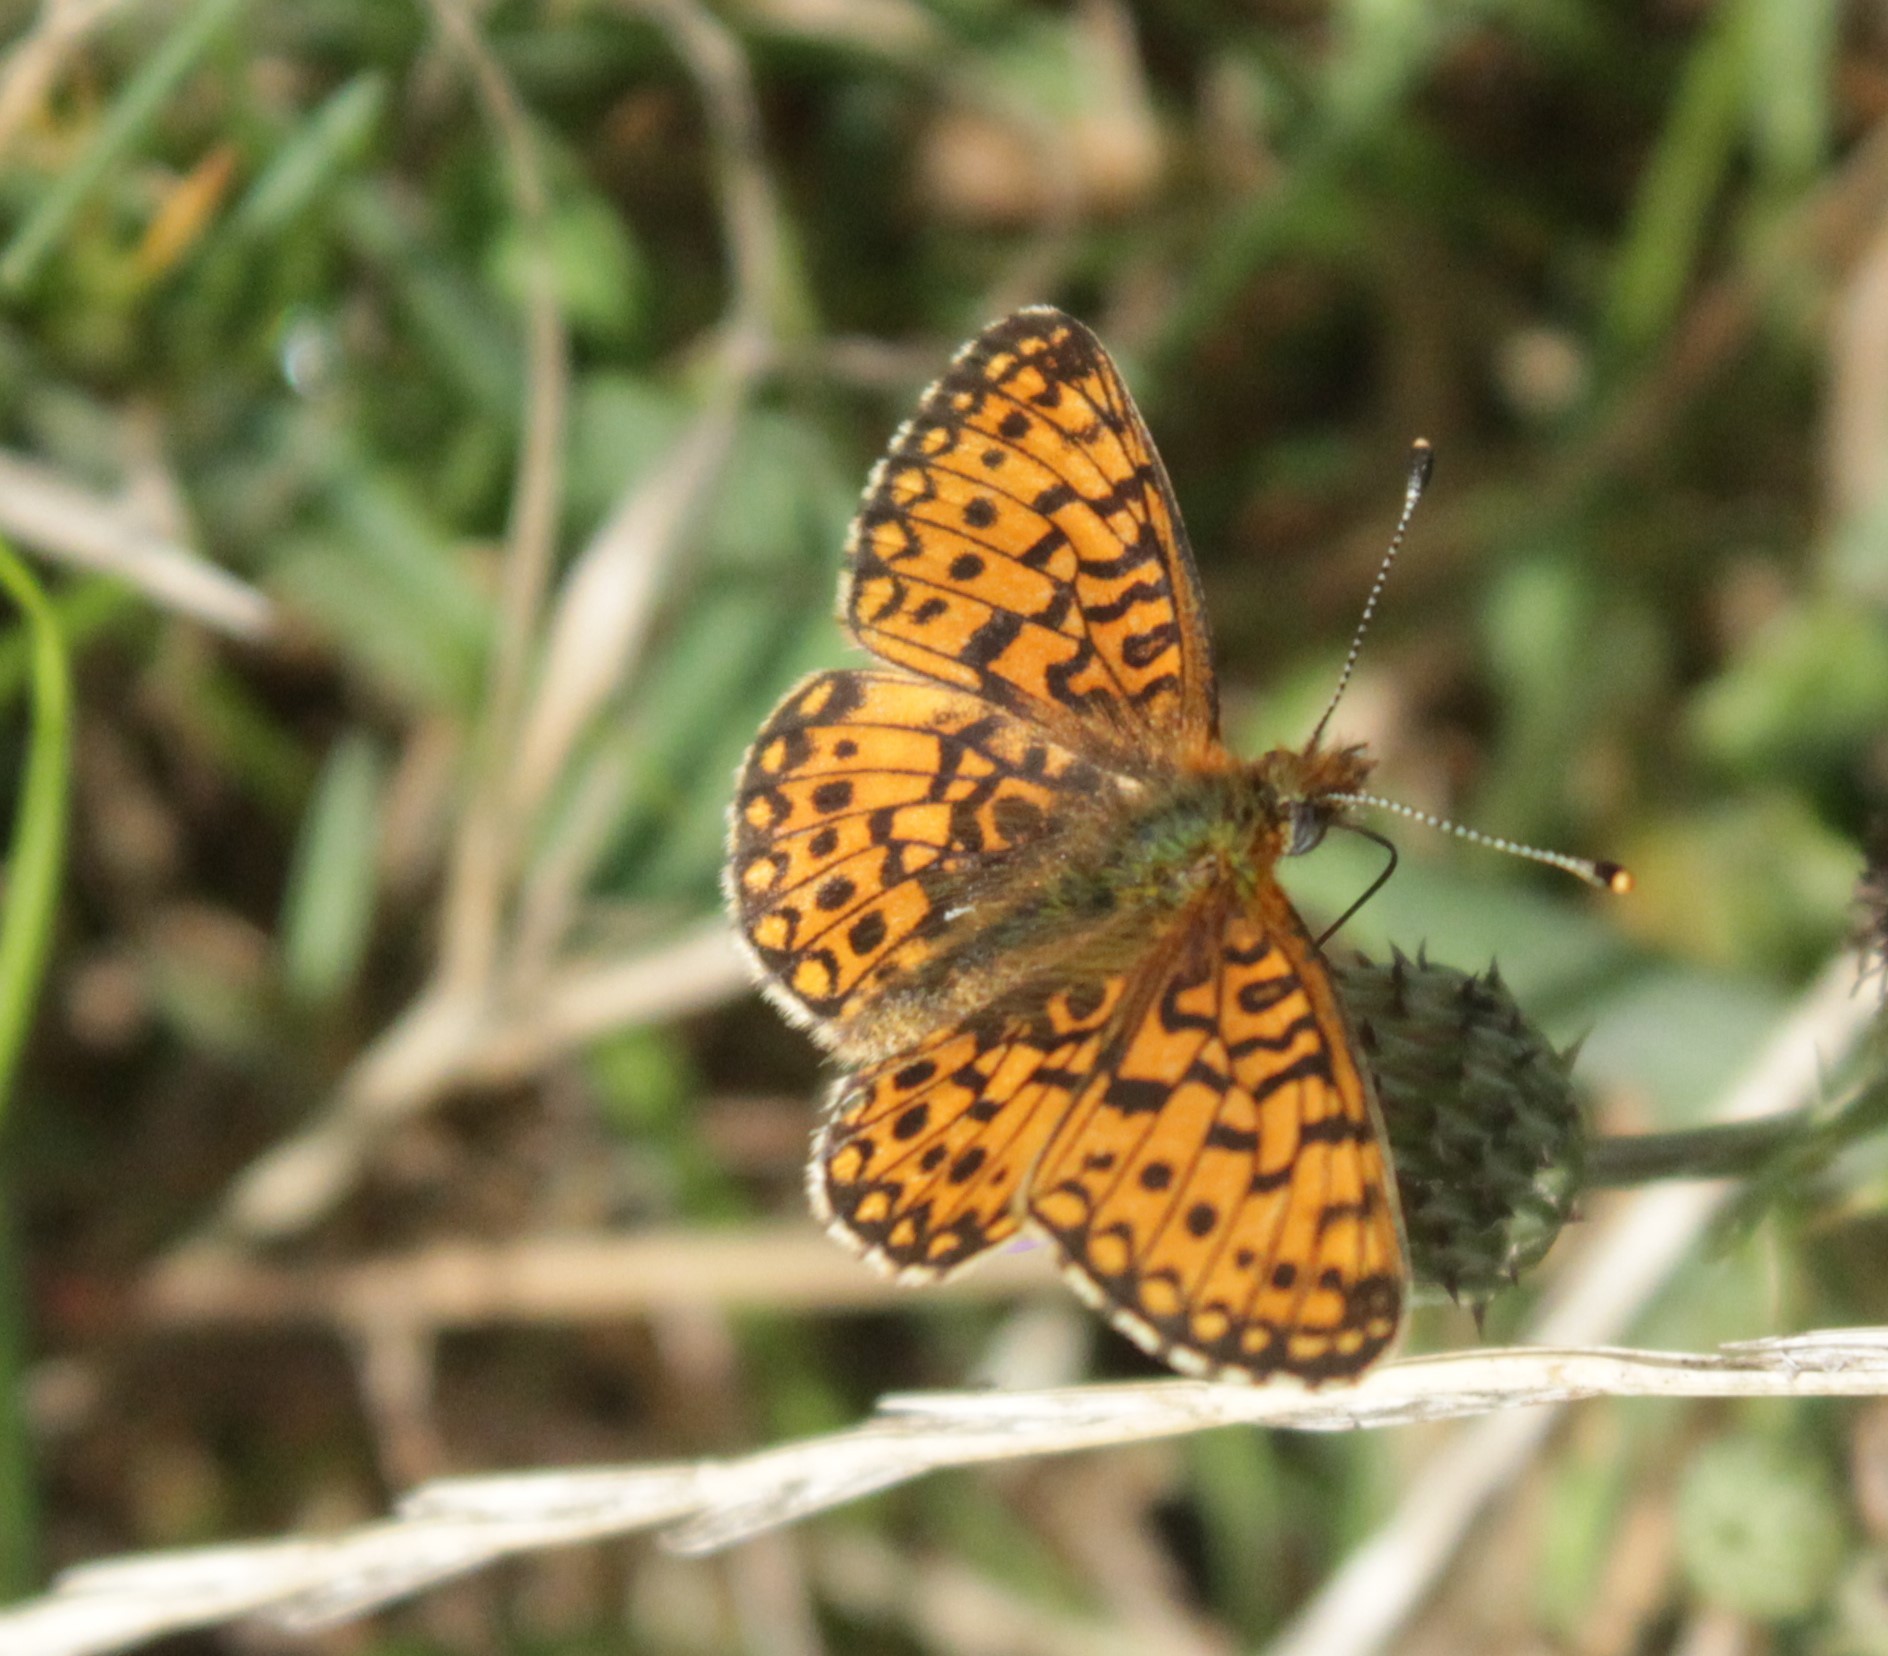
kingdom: Animalia
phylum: Arthropoda
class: Insecta
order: Lepidoptera
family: Nymphalidae
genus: Boloria
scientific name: Boloria selene
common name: Small pearl-bordered fritillary
